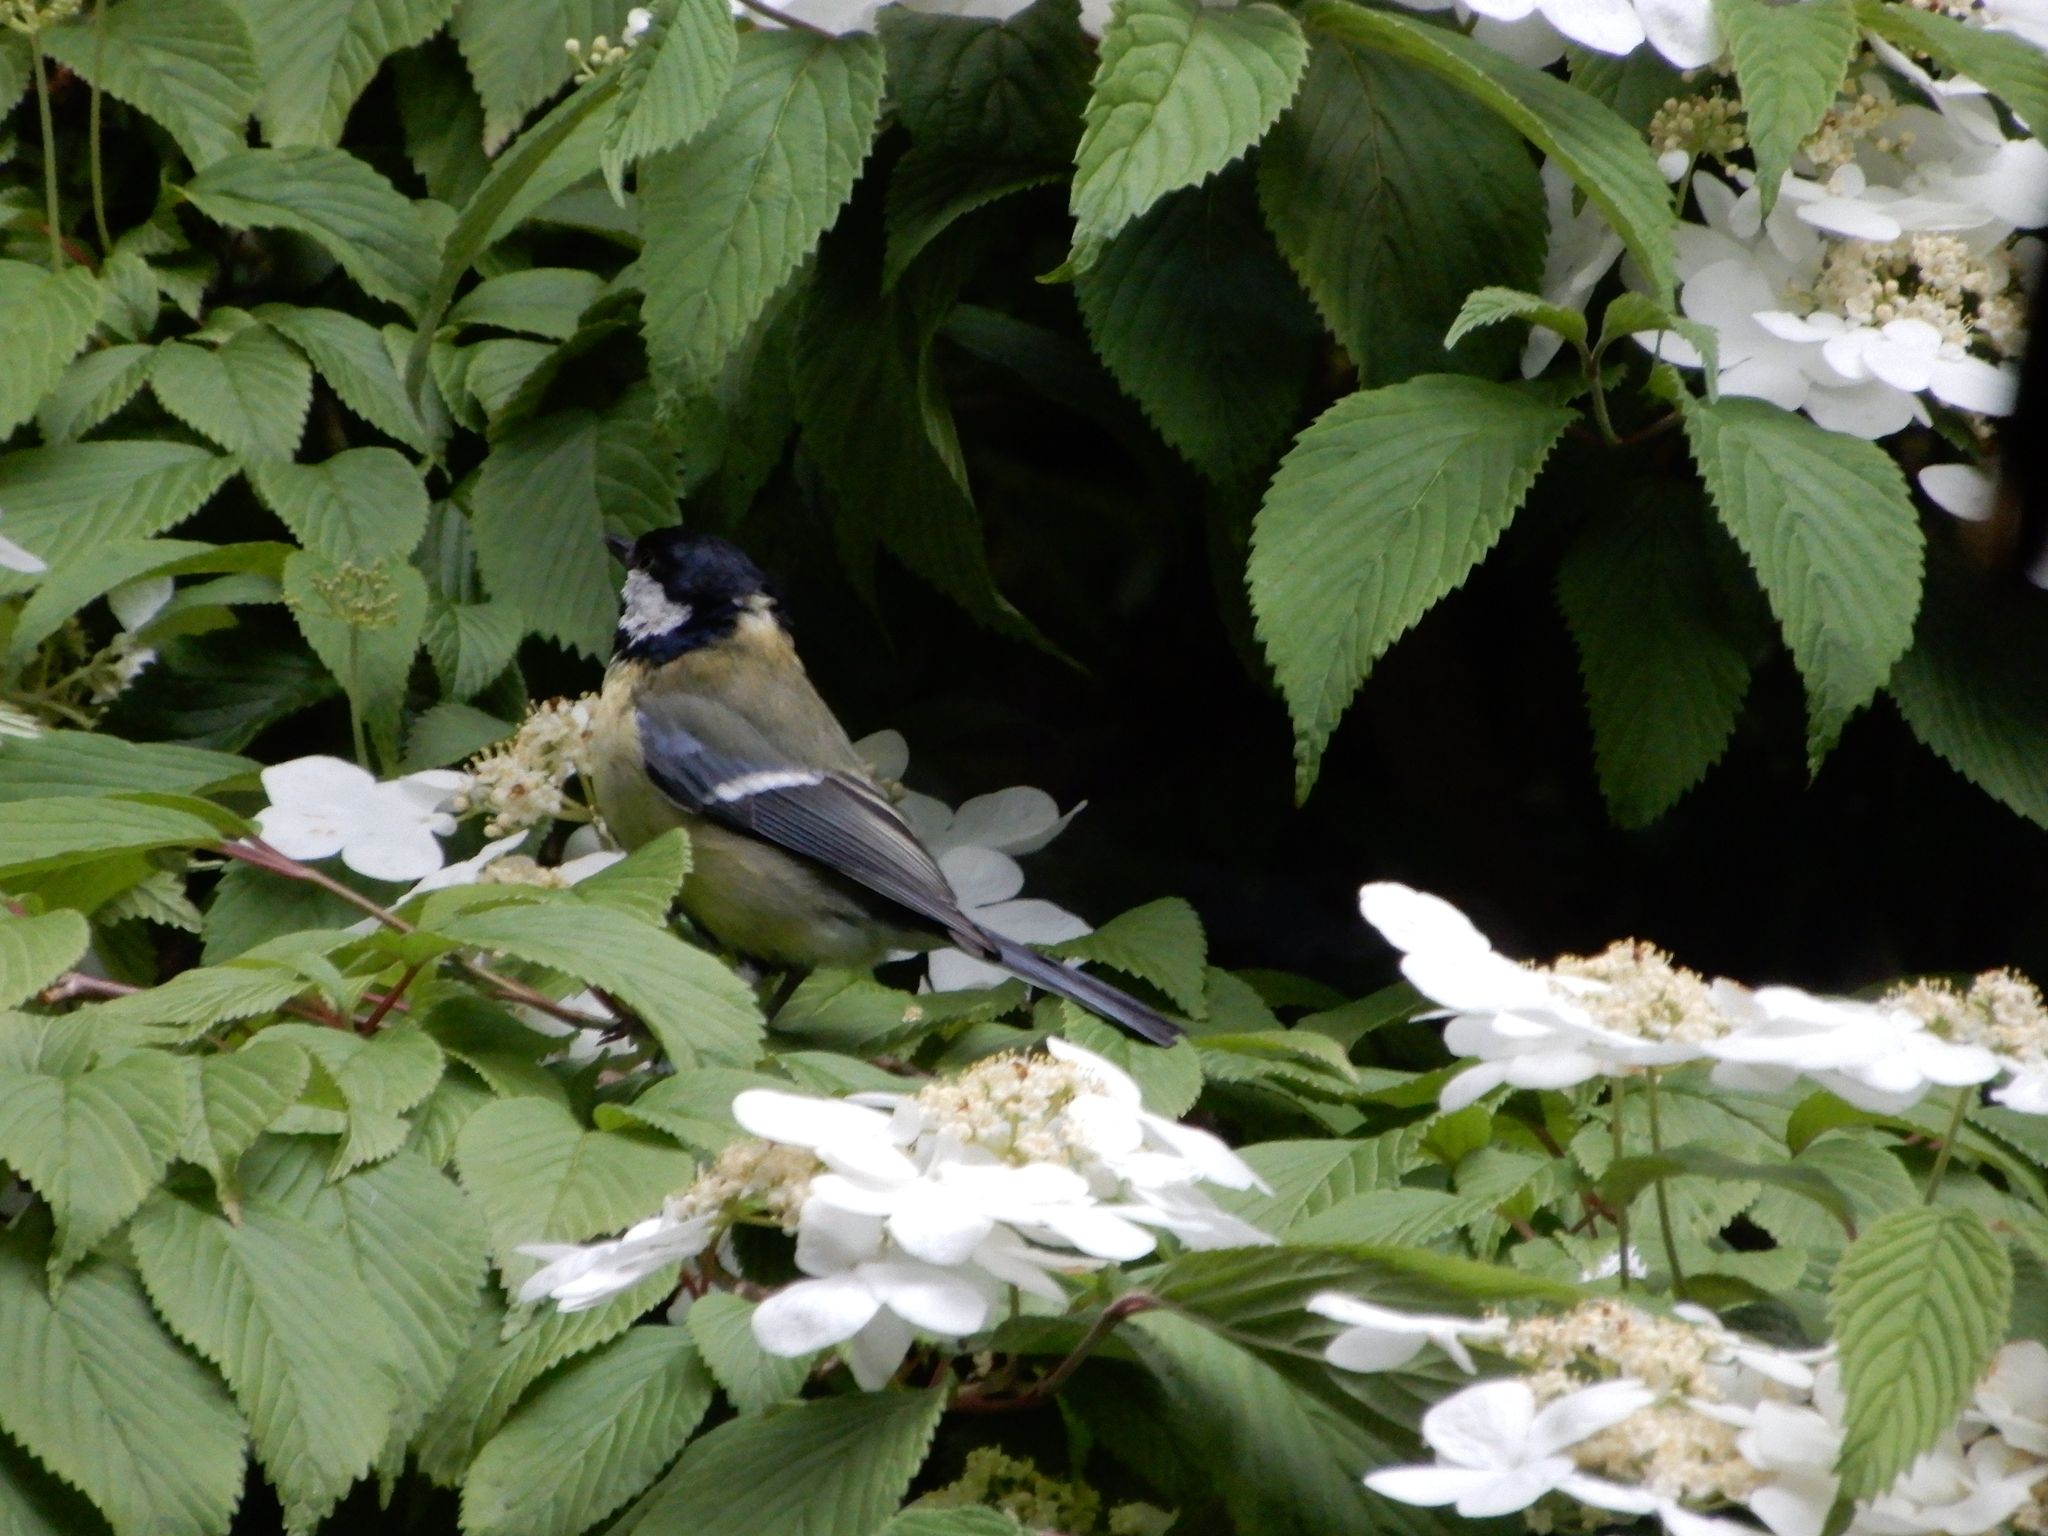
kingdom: Animalia
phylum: Chordata
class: Aves
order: Passeriformes
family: Paridae
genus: Parus
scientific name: Parus major
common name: Great tit
